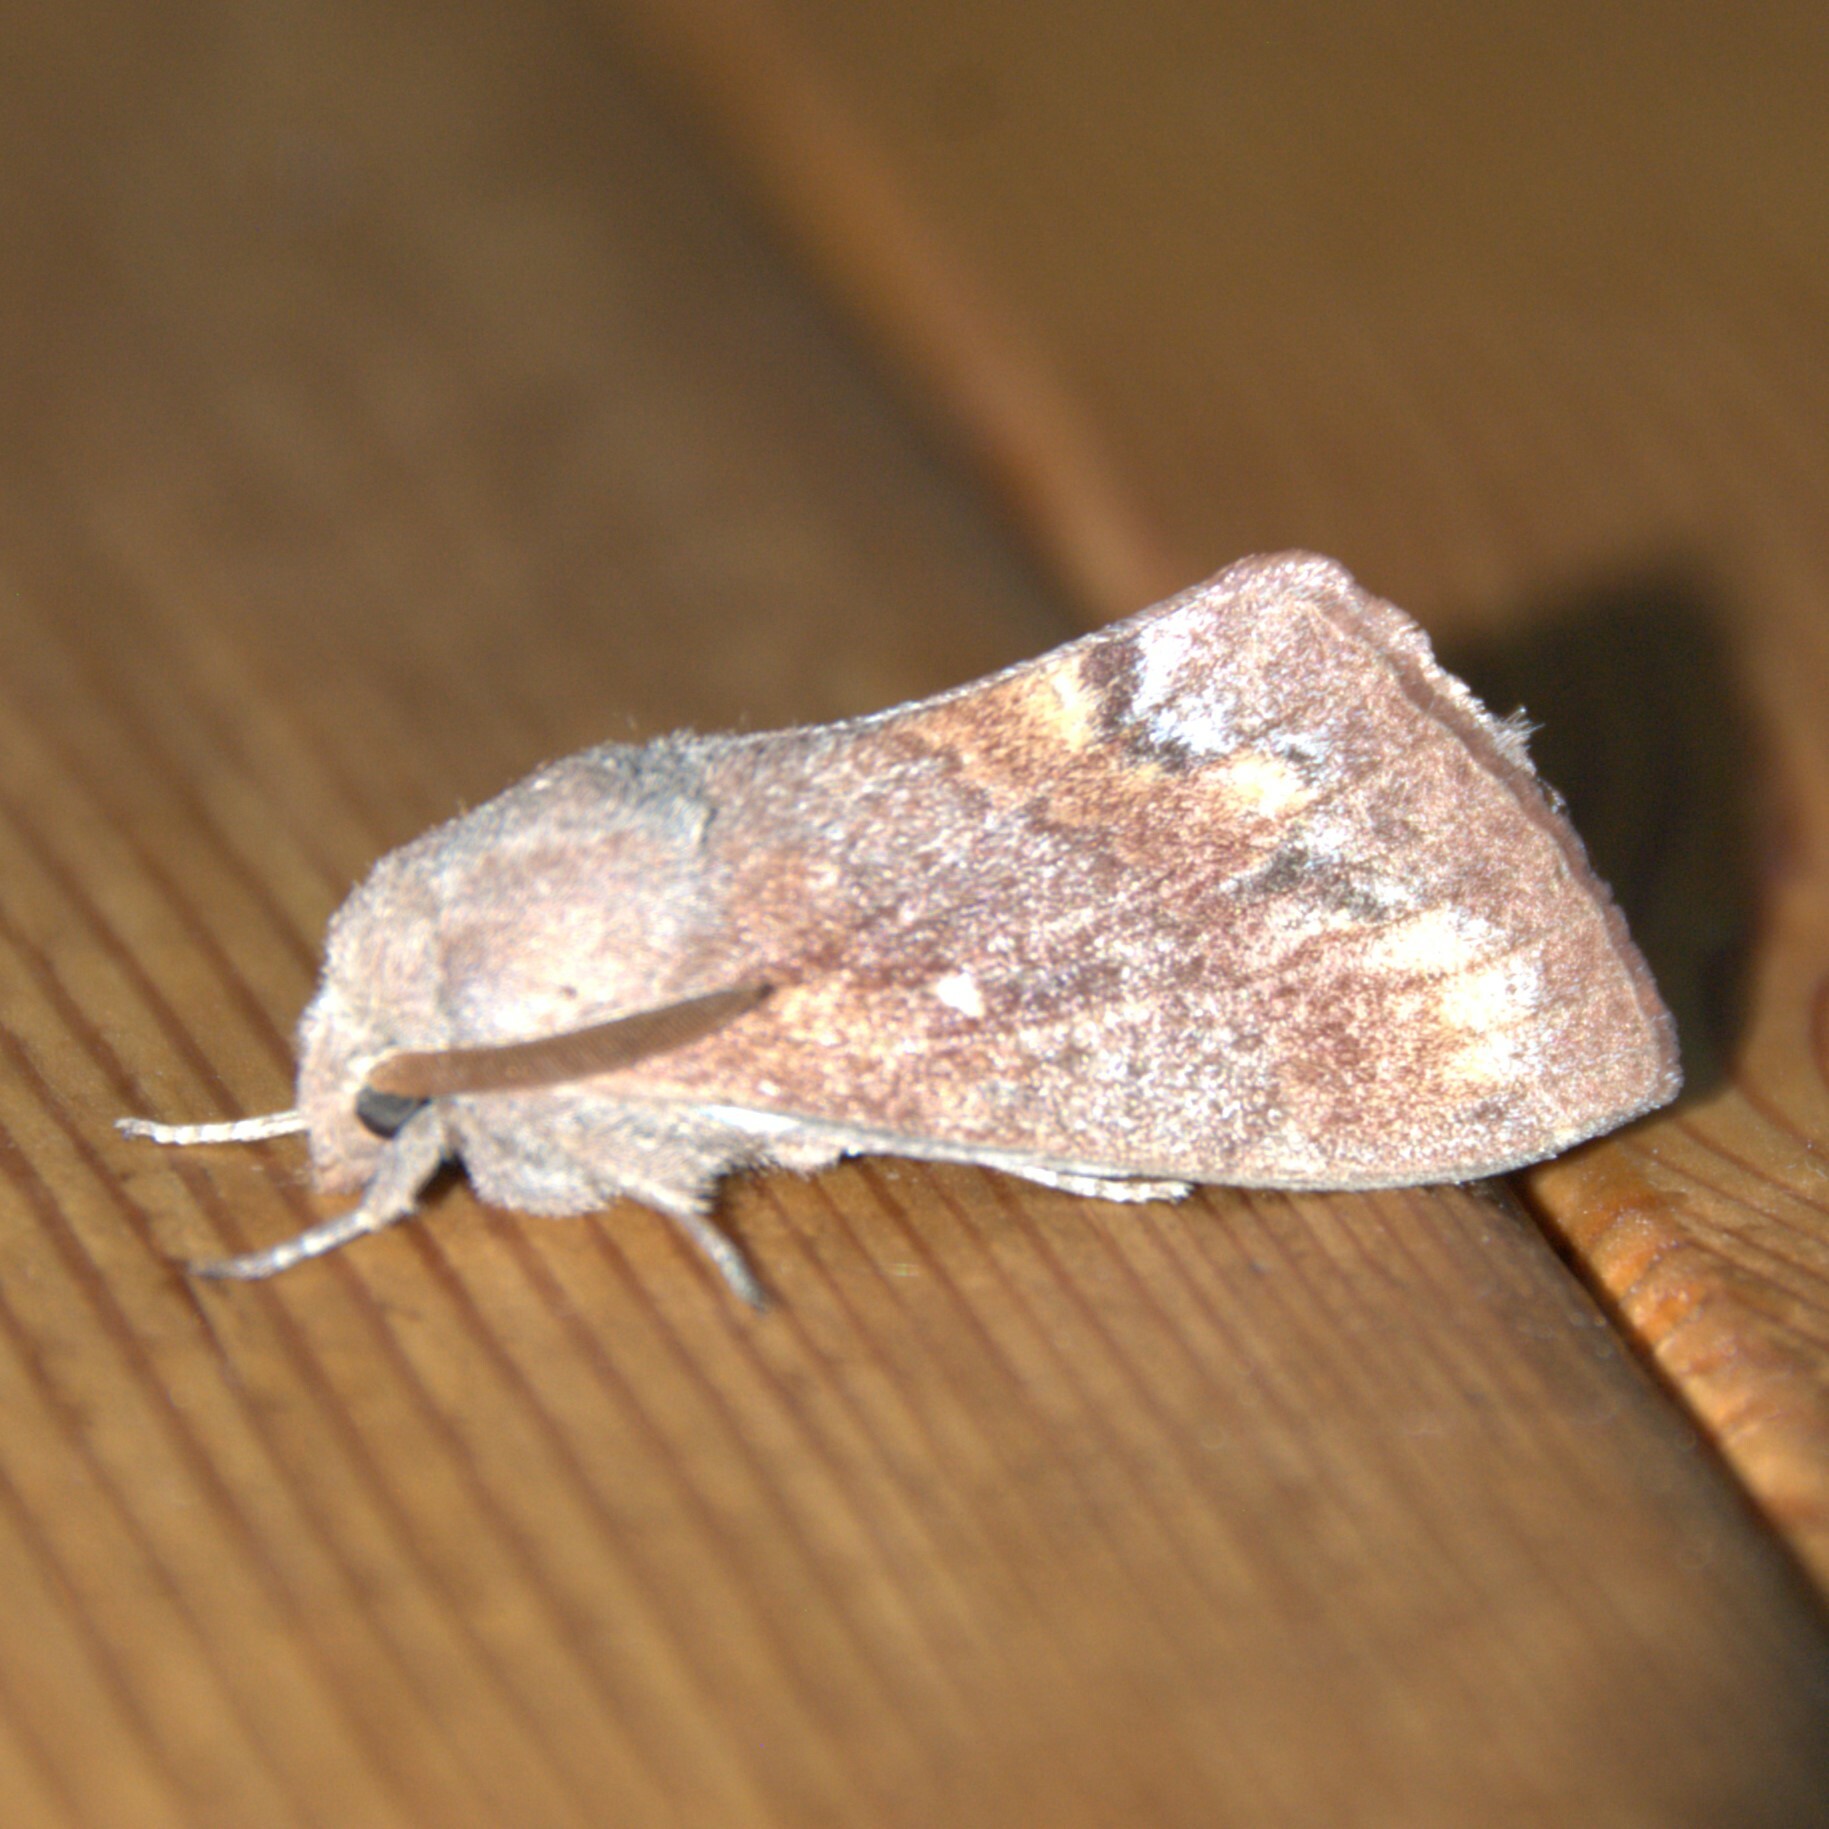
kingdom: Animalia
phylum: Arthropoda
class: Insecta
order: Lepidoptera
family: Lasiocampidae
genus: Dendrolimus
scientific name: Dendrolimus pini
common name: Pine-tree lappet
